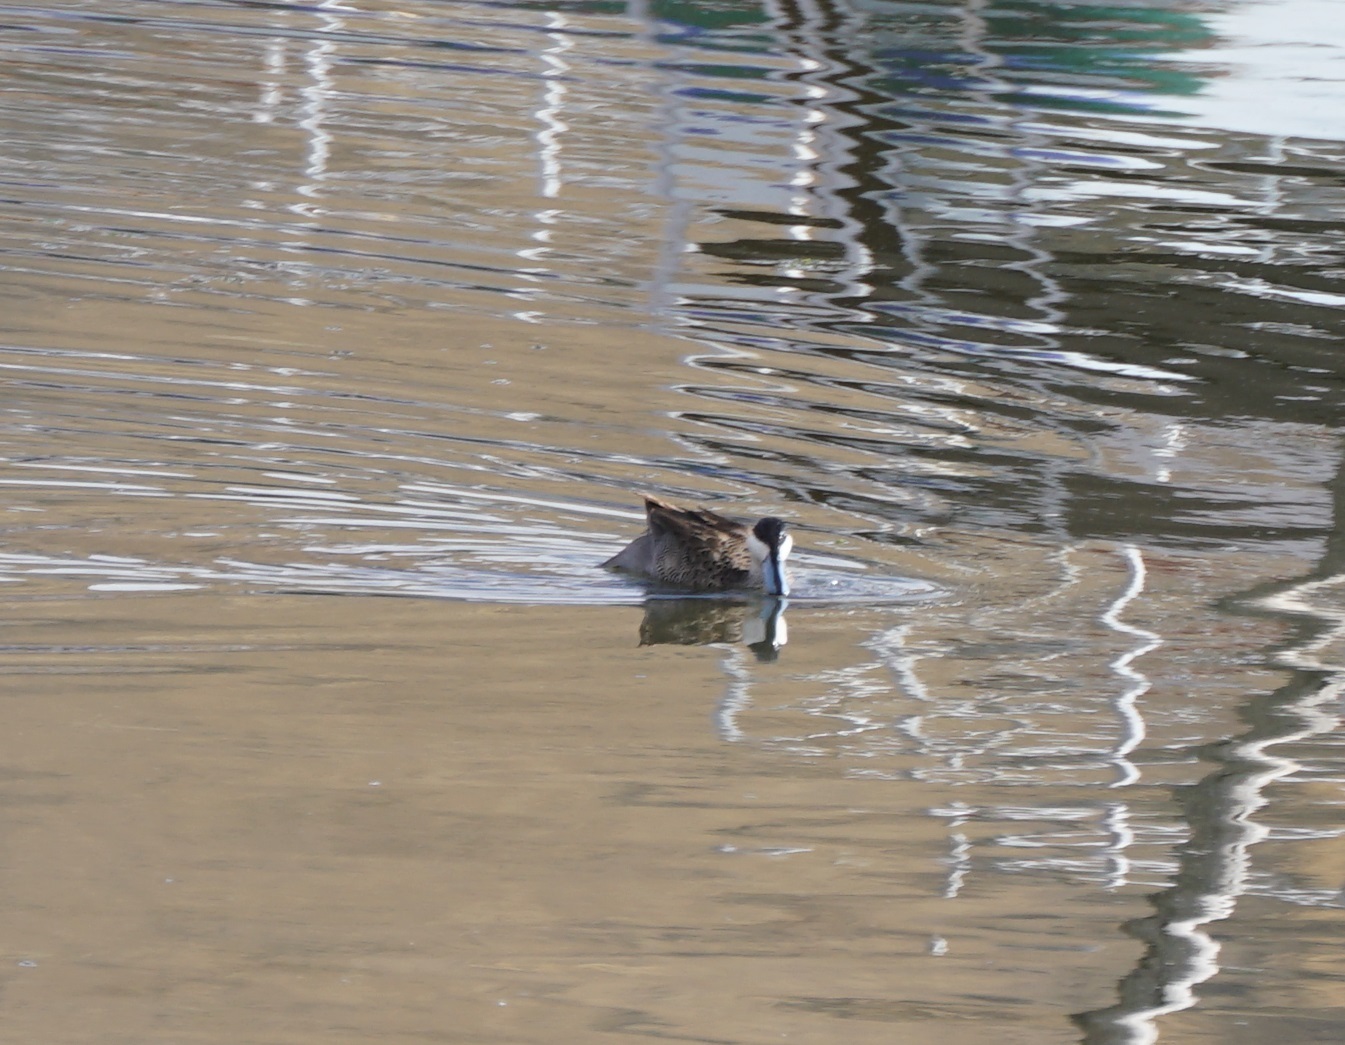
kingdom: Animalia
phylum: Chordata
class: Aves
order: Anseriformes
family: Anatidae
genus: Spatula
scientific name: Spatula puna
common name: Puna teal
